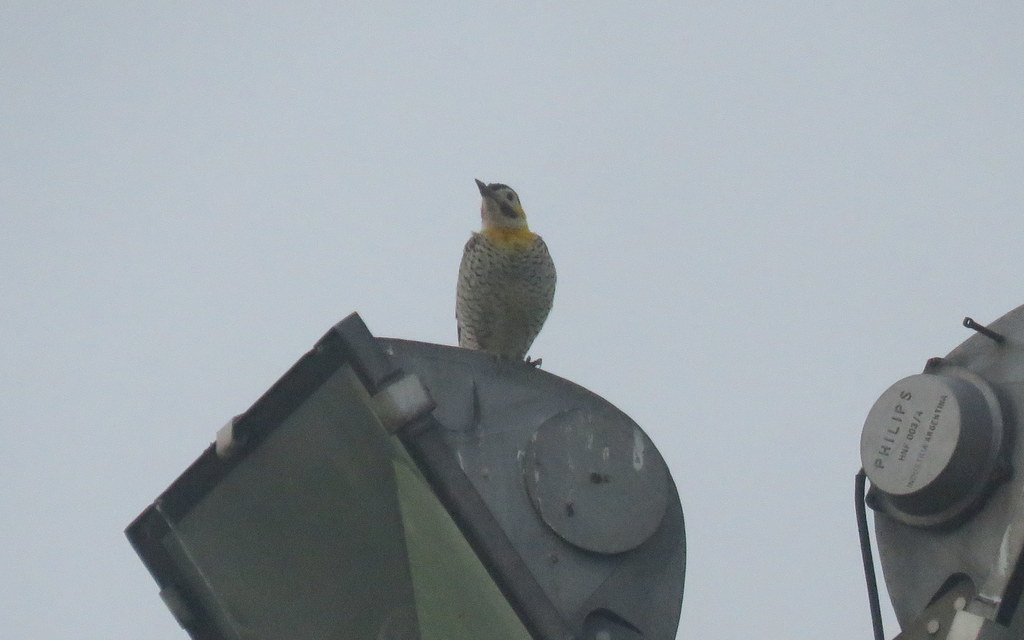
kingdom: Animalia
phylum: Chordata
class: Aves
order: Piciformes
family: Picidae
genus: Colaptes
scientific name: Colaptes campestris
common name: Campo flicker
